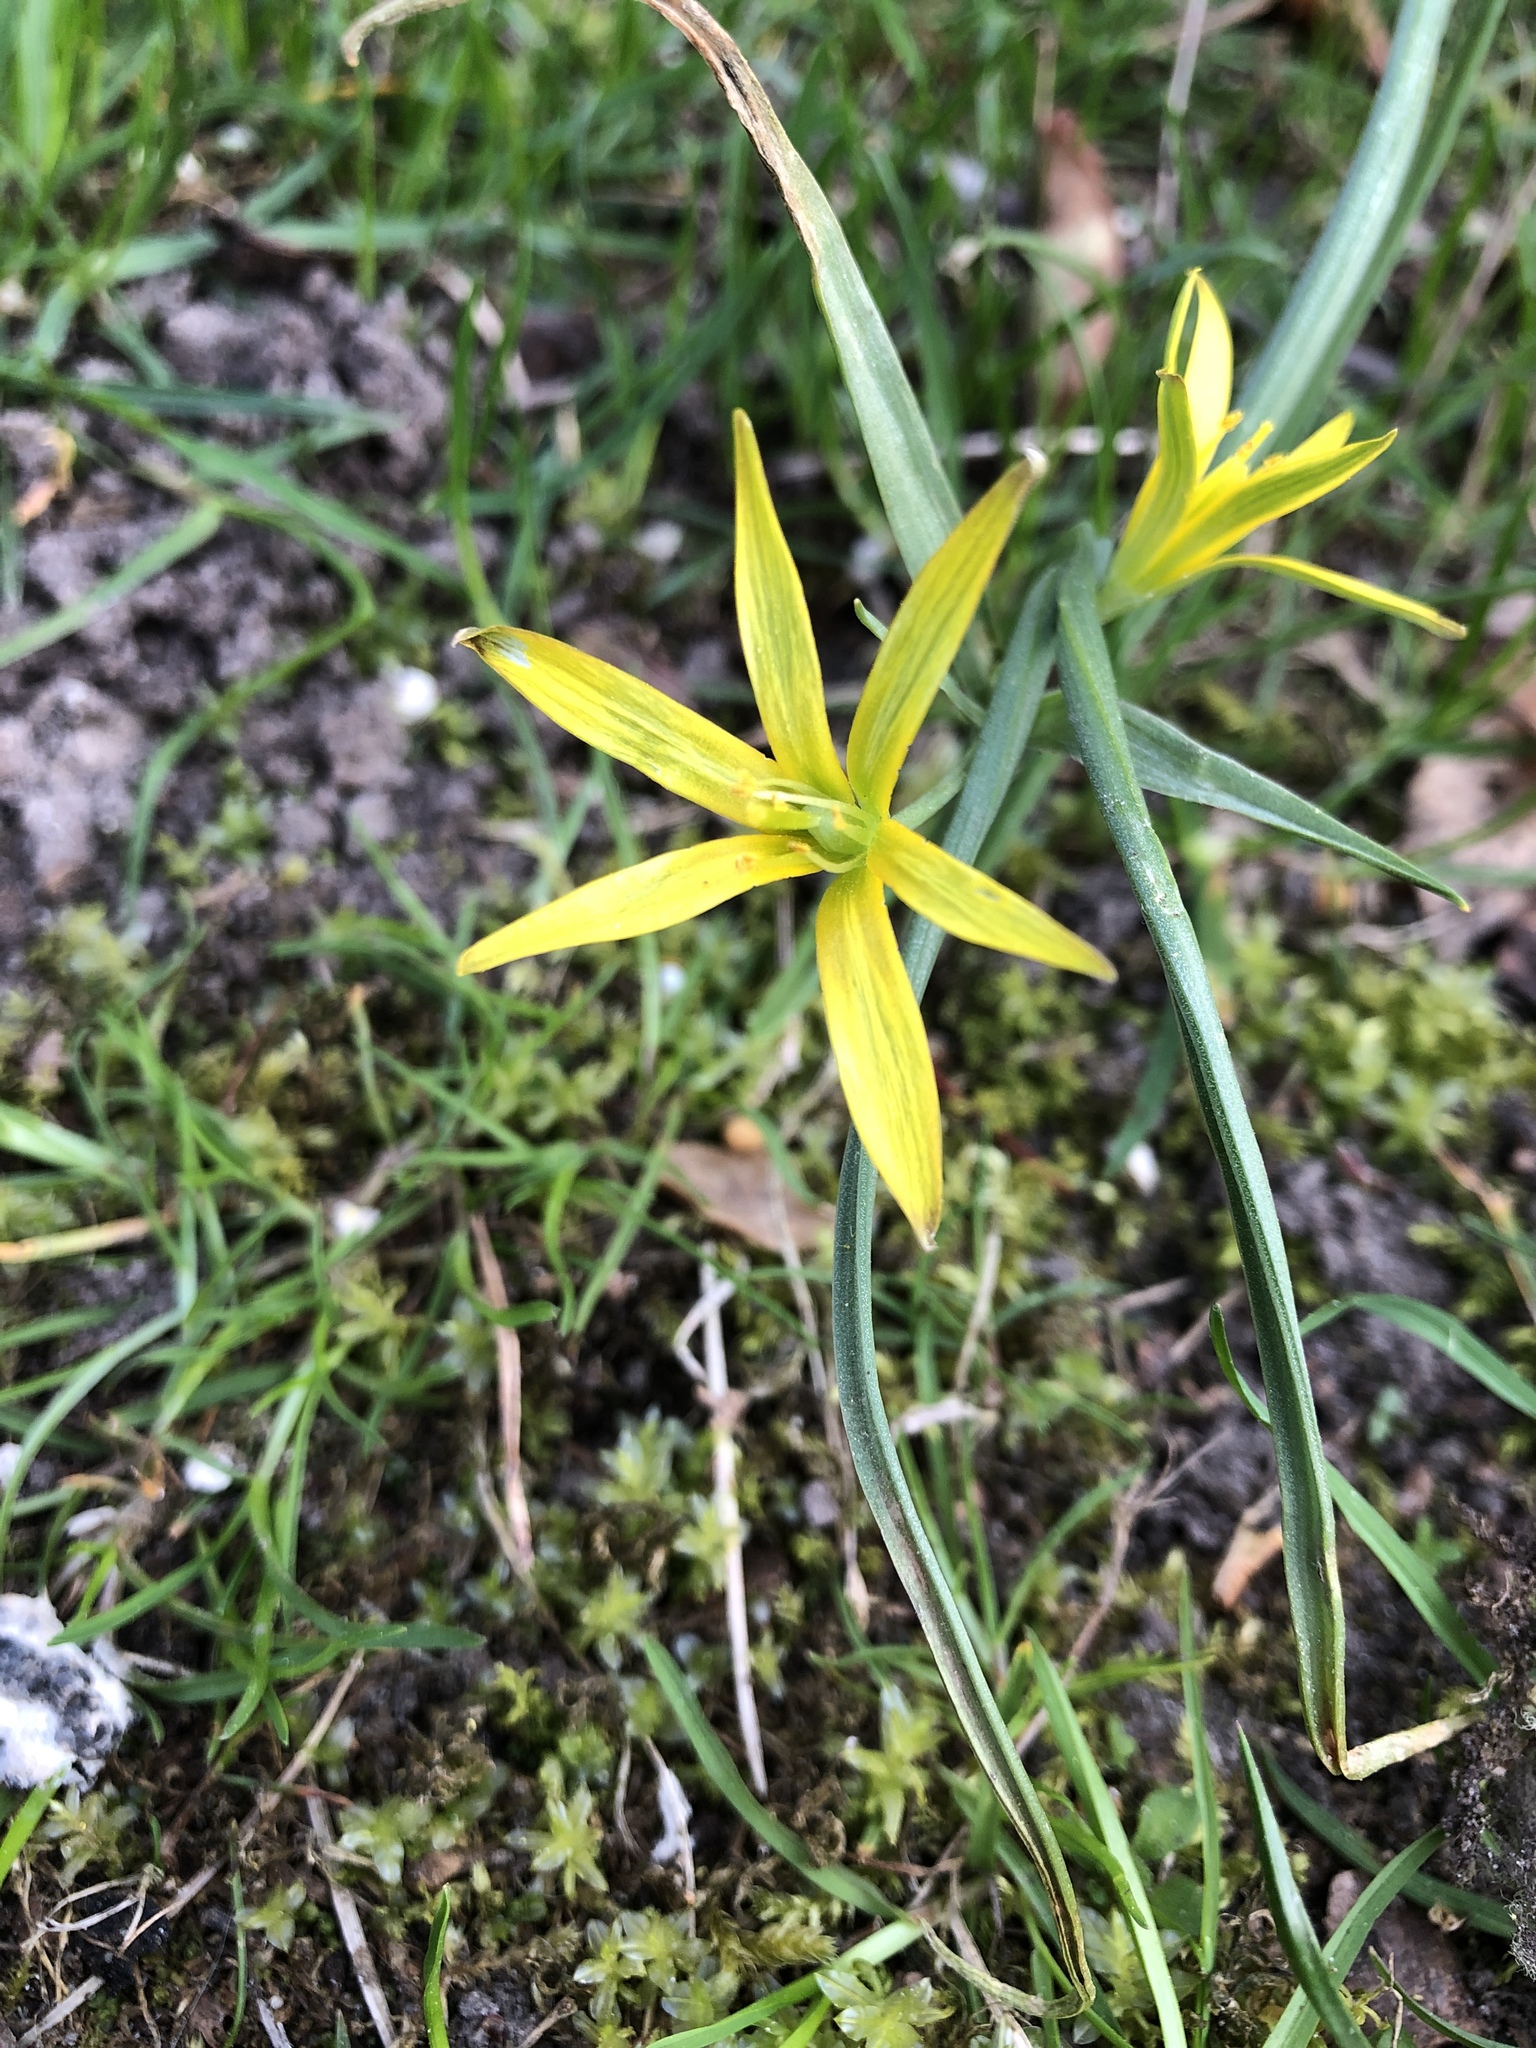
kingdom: Plantae
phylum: Tracheophyta
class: Liliopsida
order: Liliales
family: Liliaceae
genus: Gagea
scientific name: Gagea lutea
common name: Yellow star-of-bethlehem
